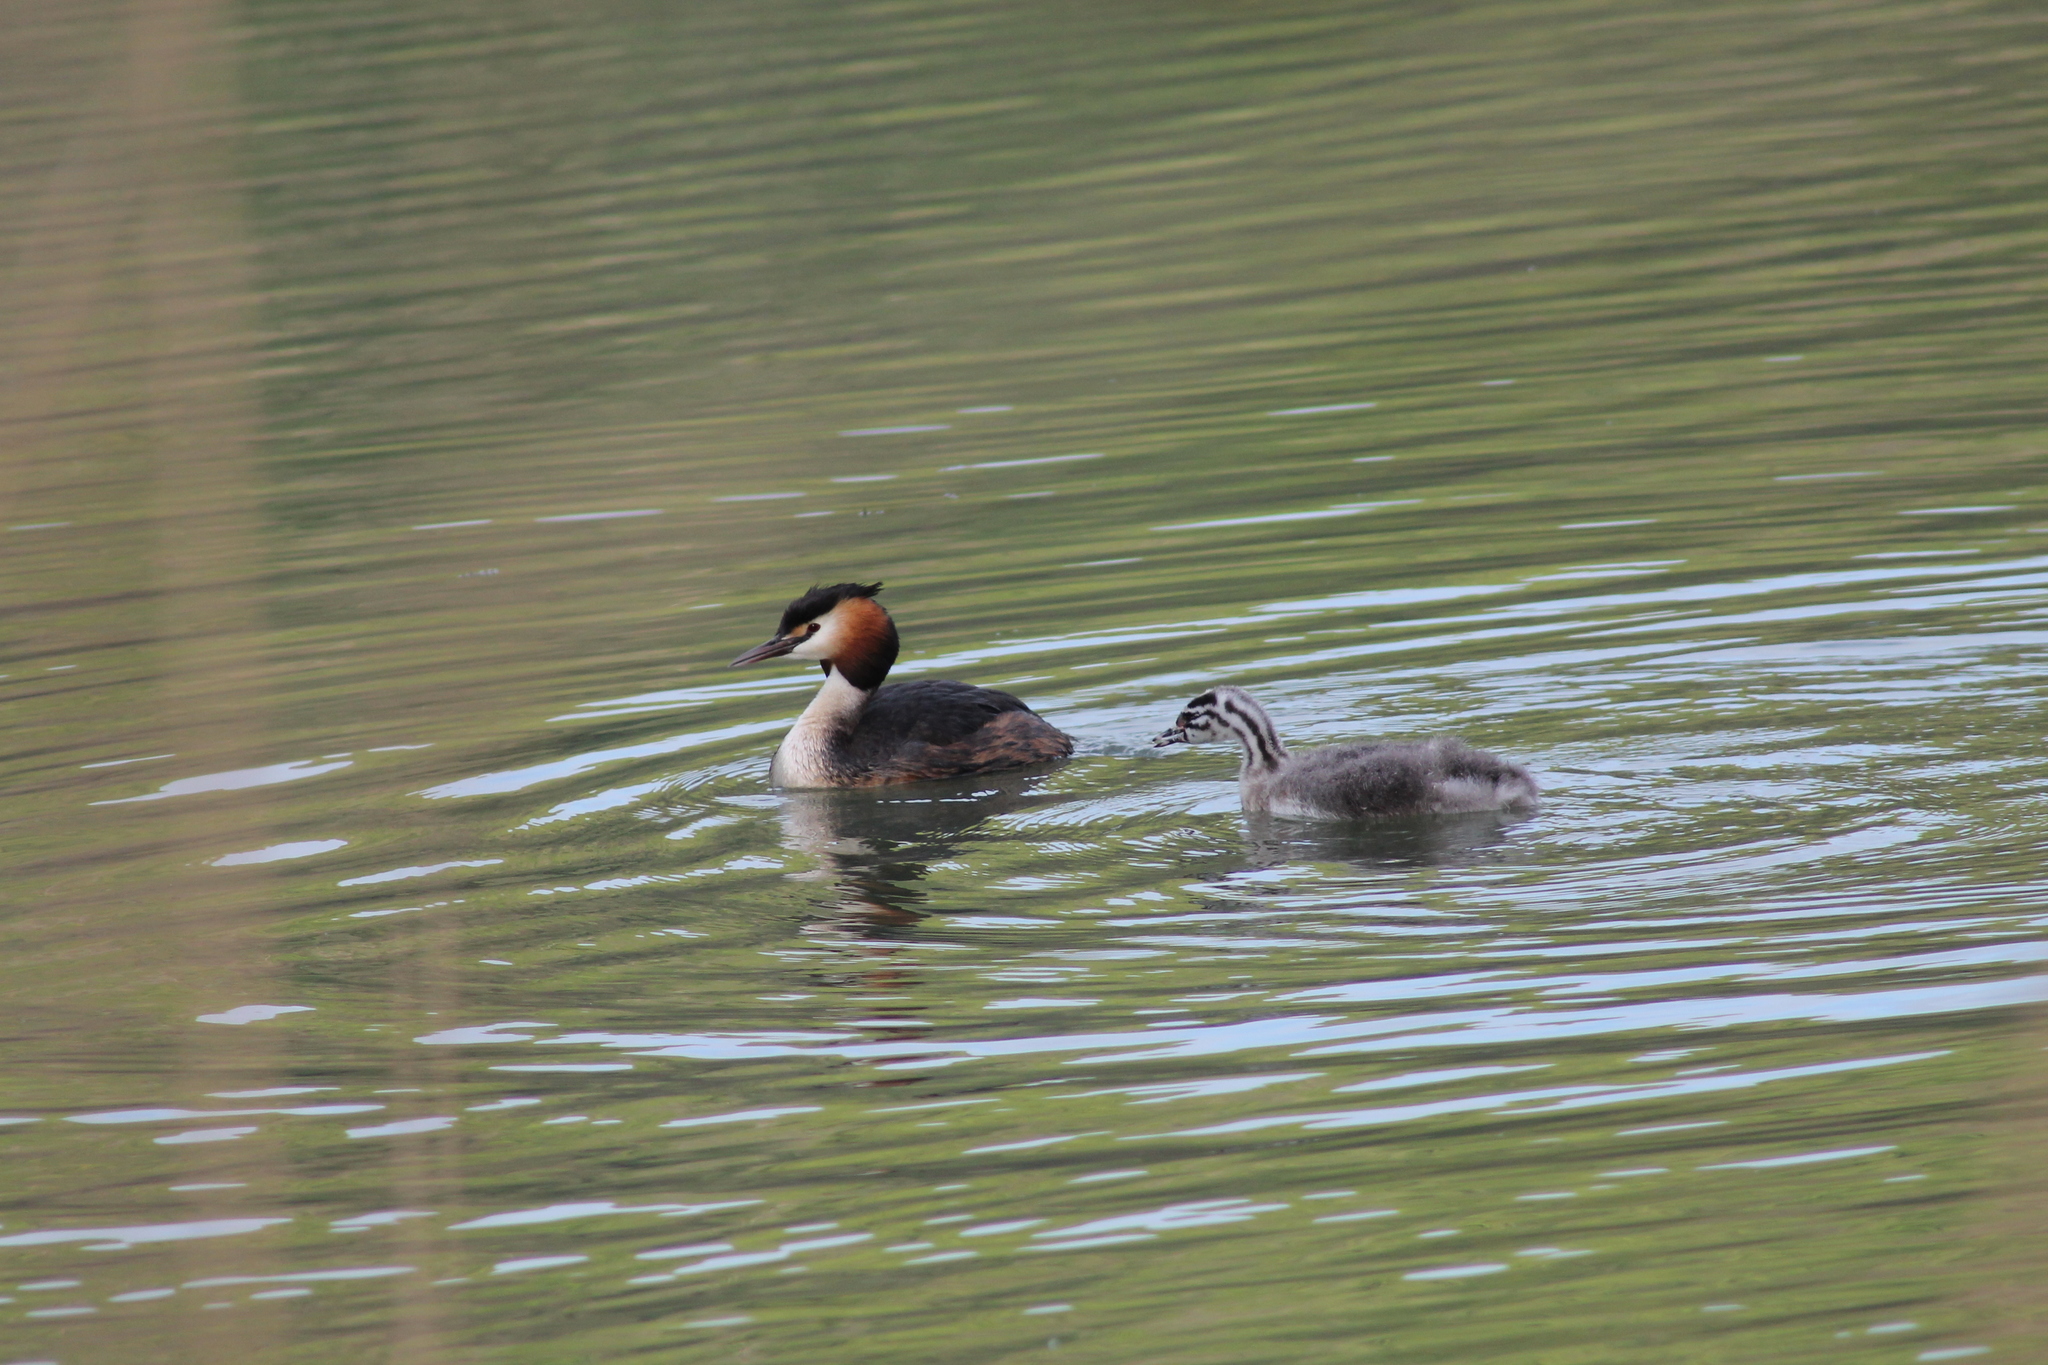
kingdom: Animalia
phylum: Chordata
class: Aves
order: Podicipediformes
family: Podicipedidae
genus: Podiceps
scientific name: Podiceps cristatus
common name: Great crested grebe
